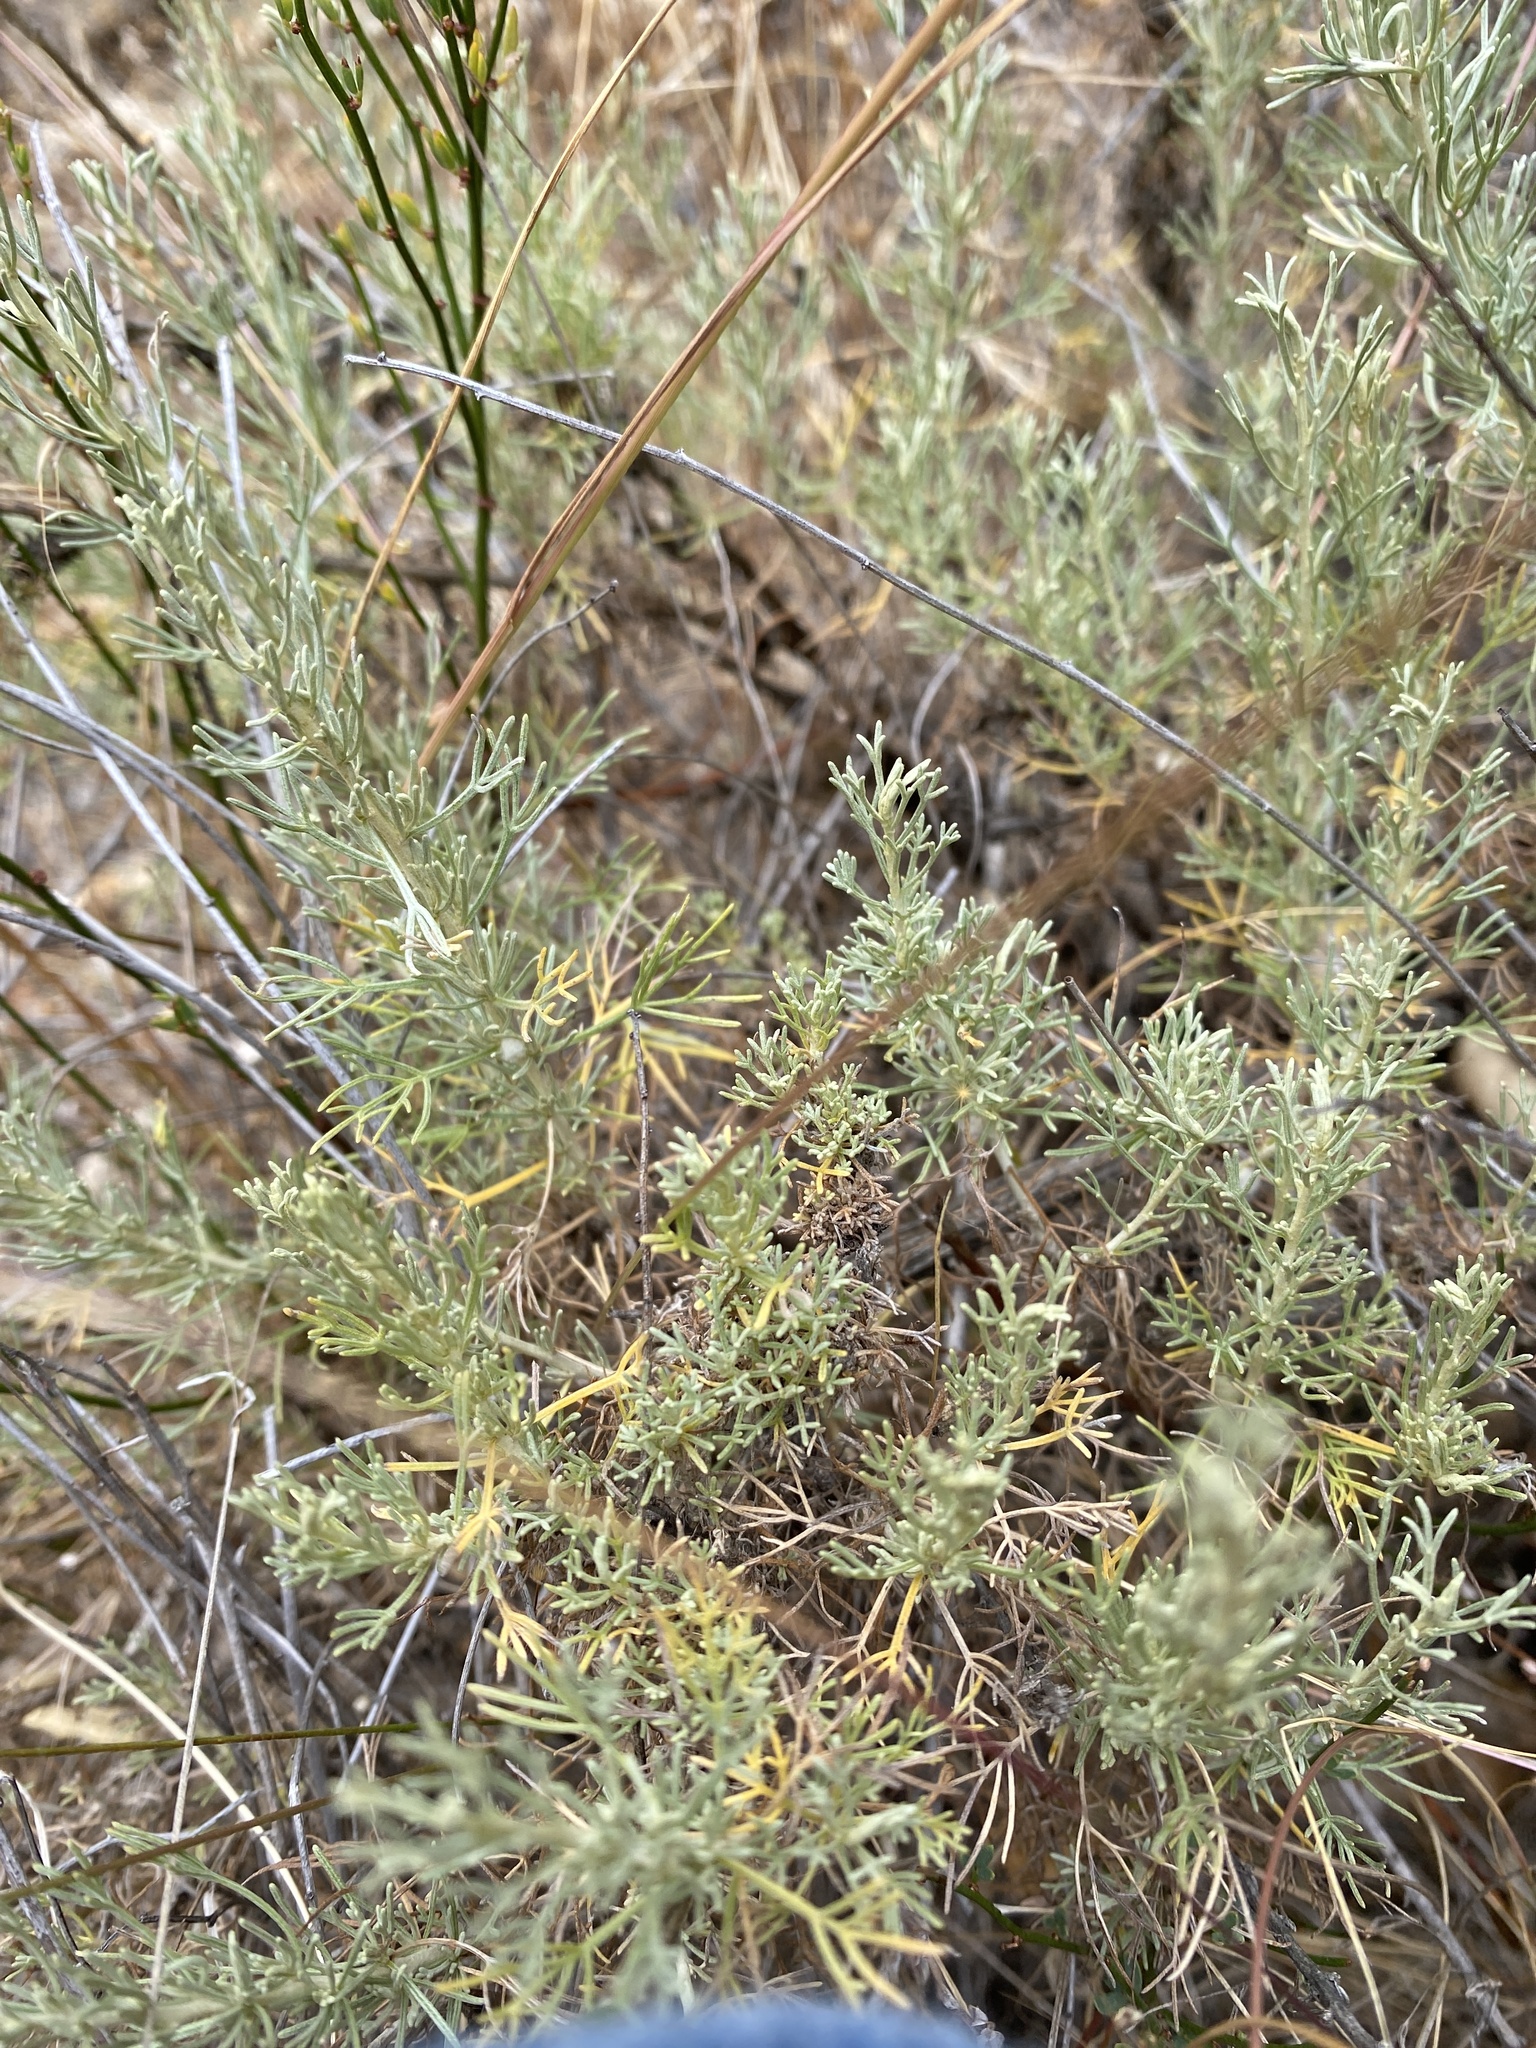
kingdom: Plantae
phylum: Tracheophyta
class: Magnoliopsida
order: Asterales
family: Asteraceae
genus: Artemisia
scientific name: Artemisia californica
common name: California sagebrush
